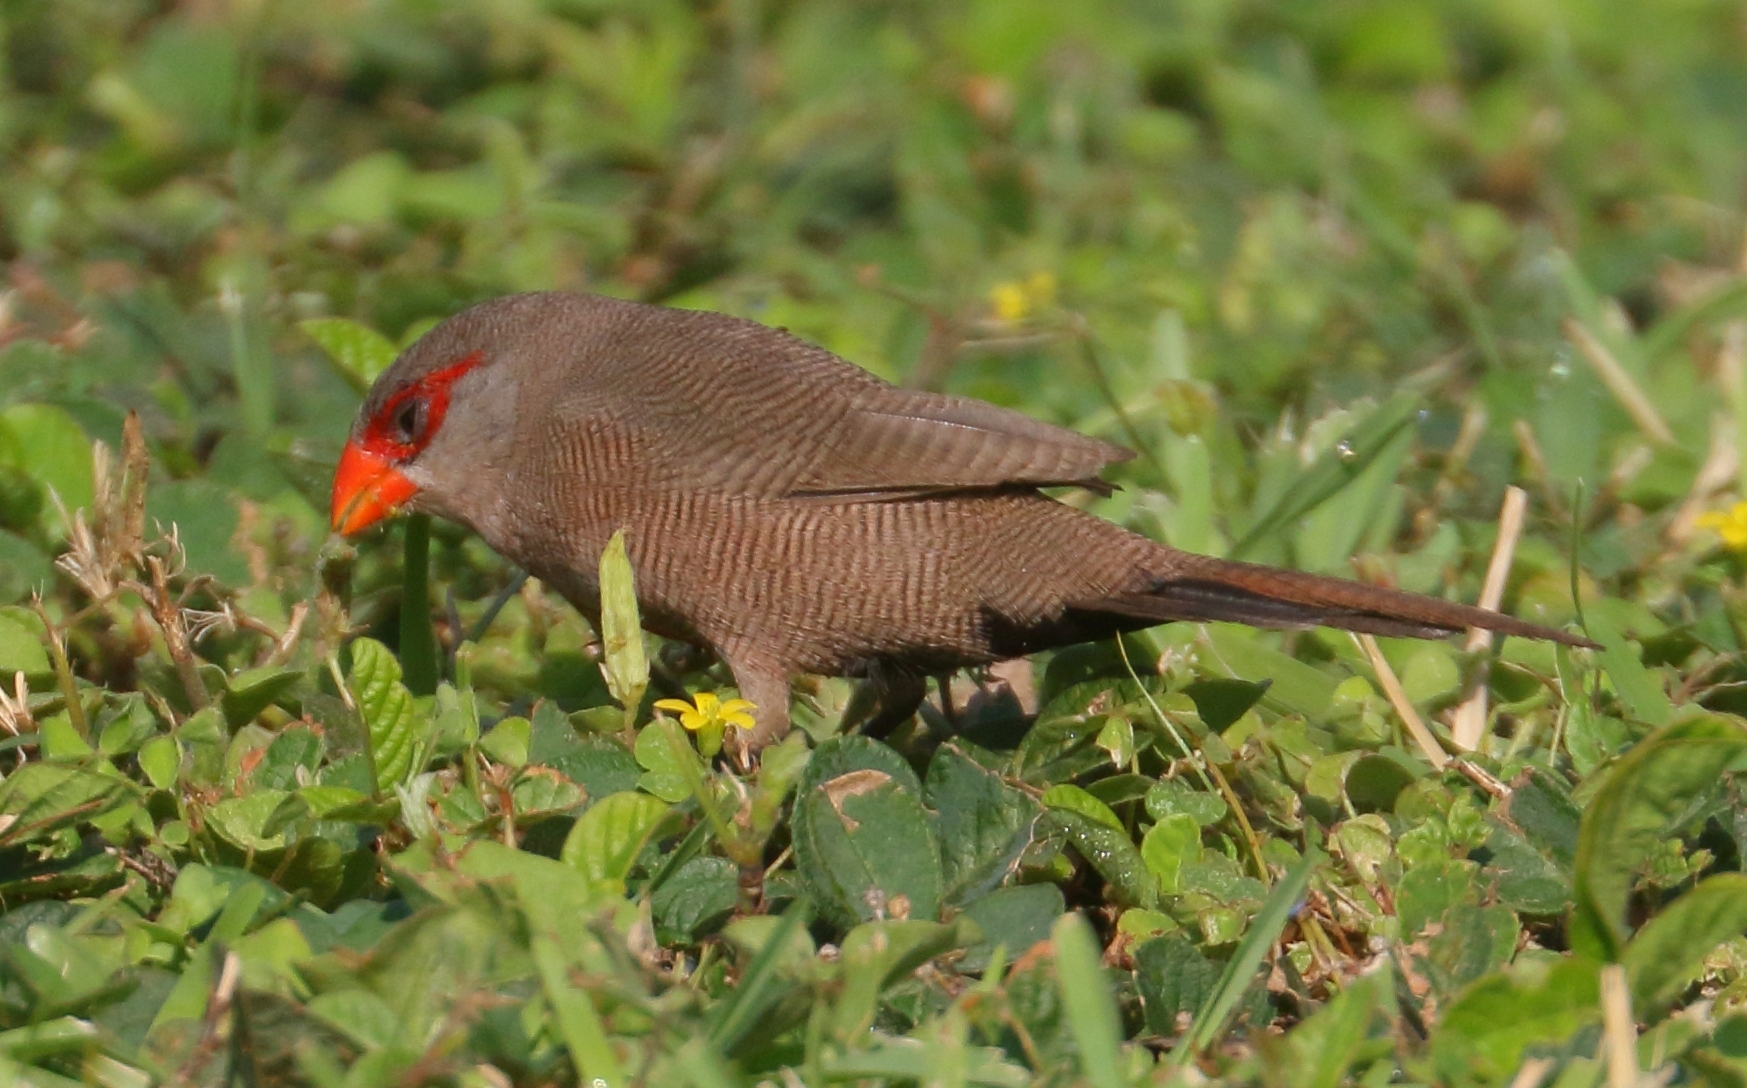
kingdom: Animalia
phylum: Chordata
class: Aves
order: Passeriformes
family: Estrildidae
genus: Estrilda
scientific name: Estrilda astrild
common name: Common waxbill
